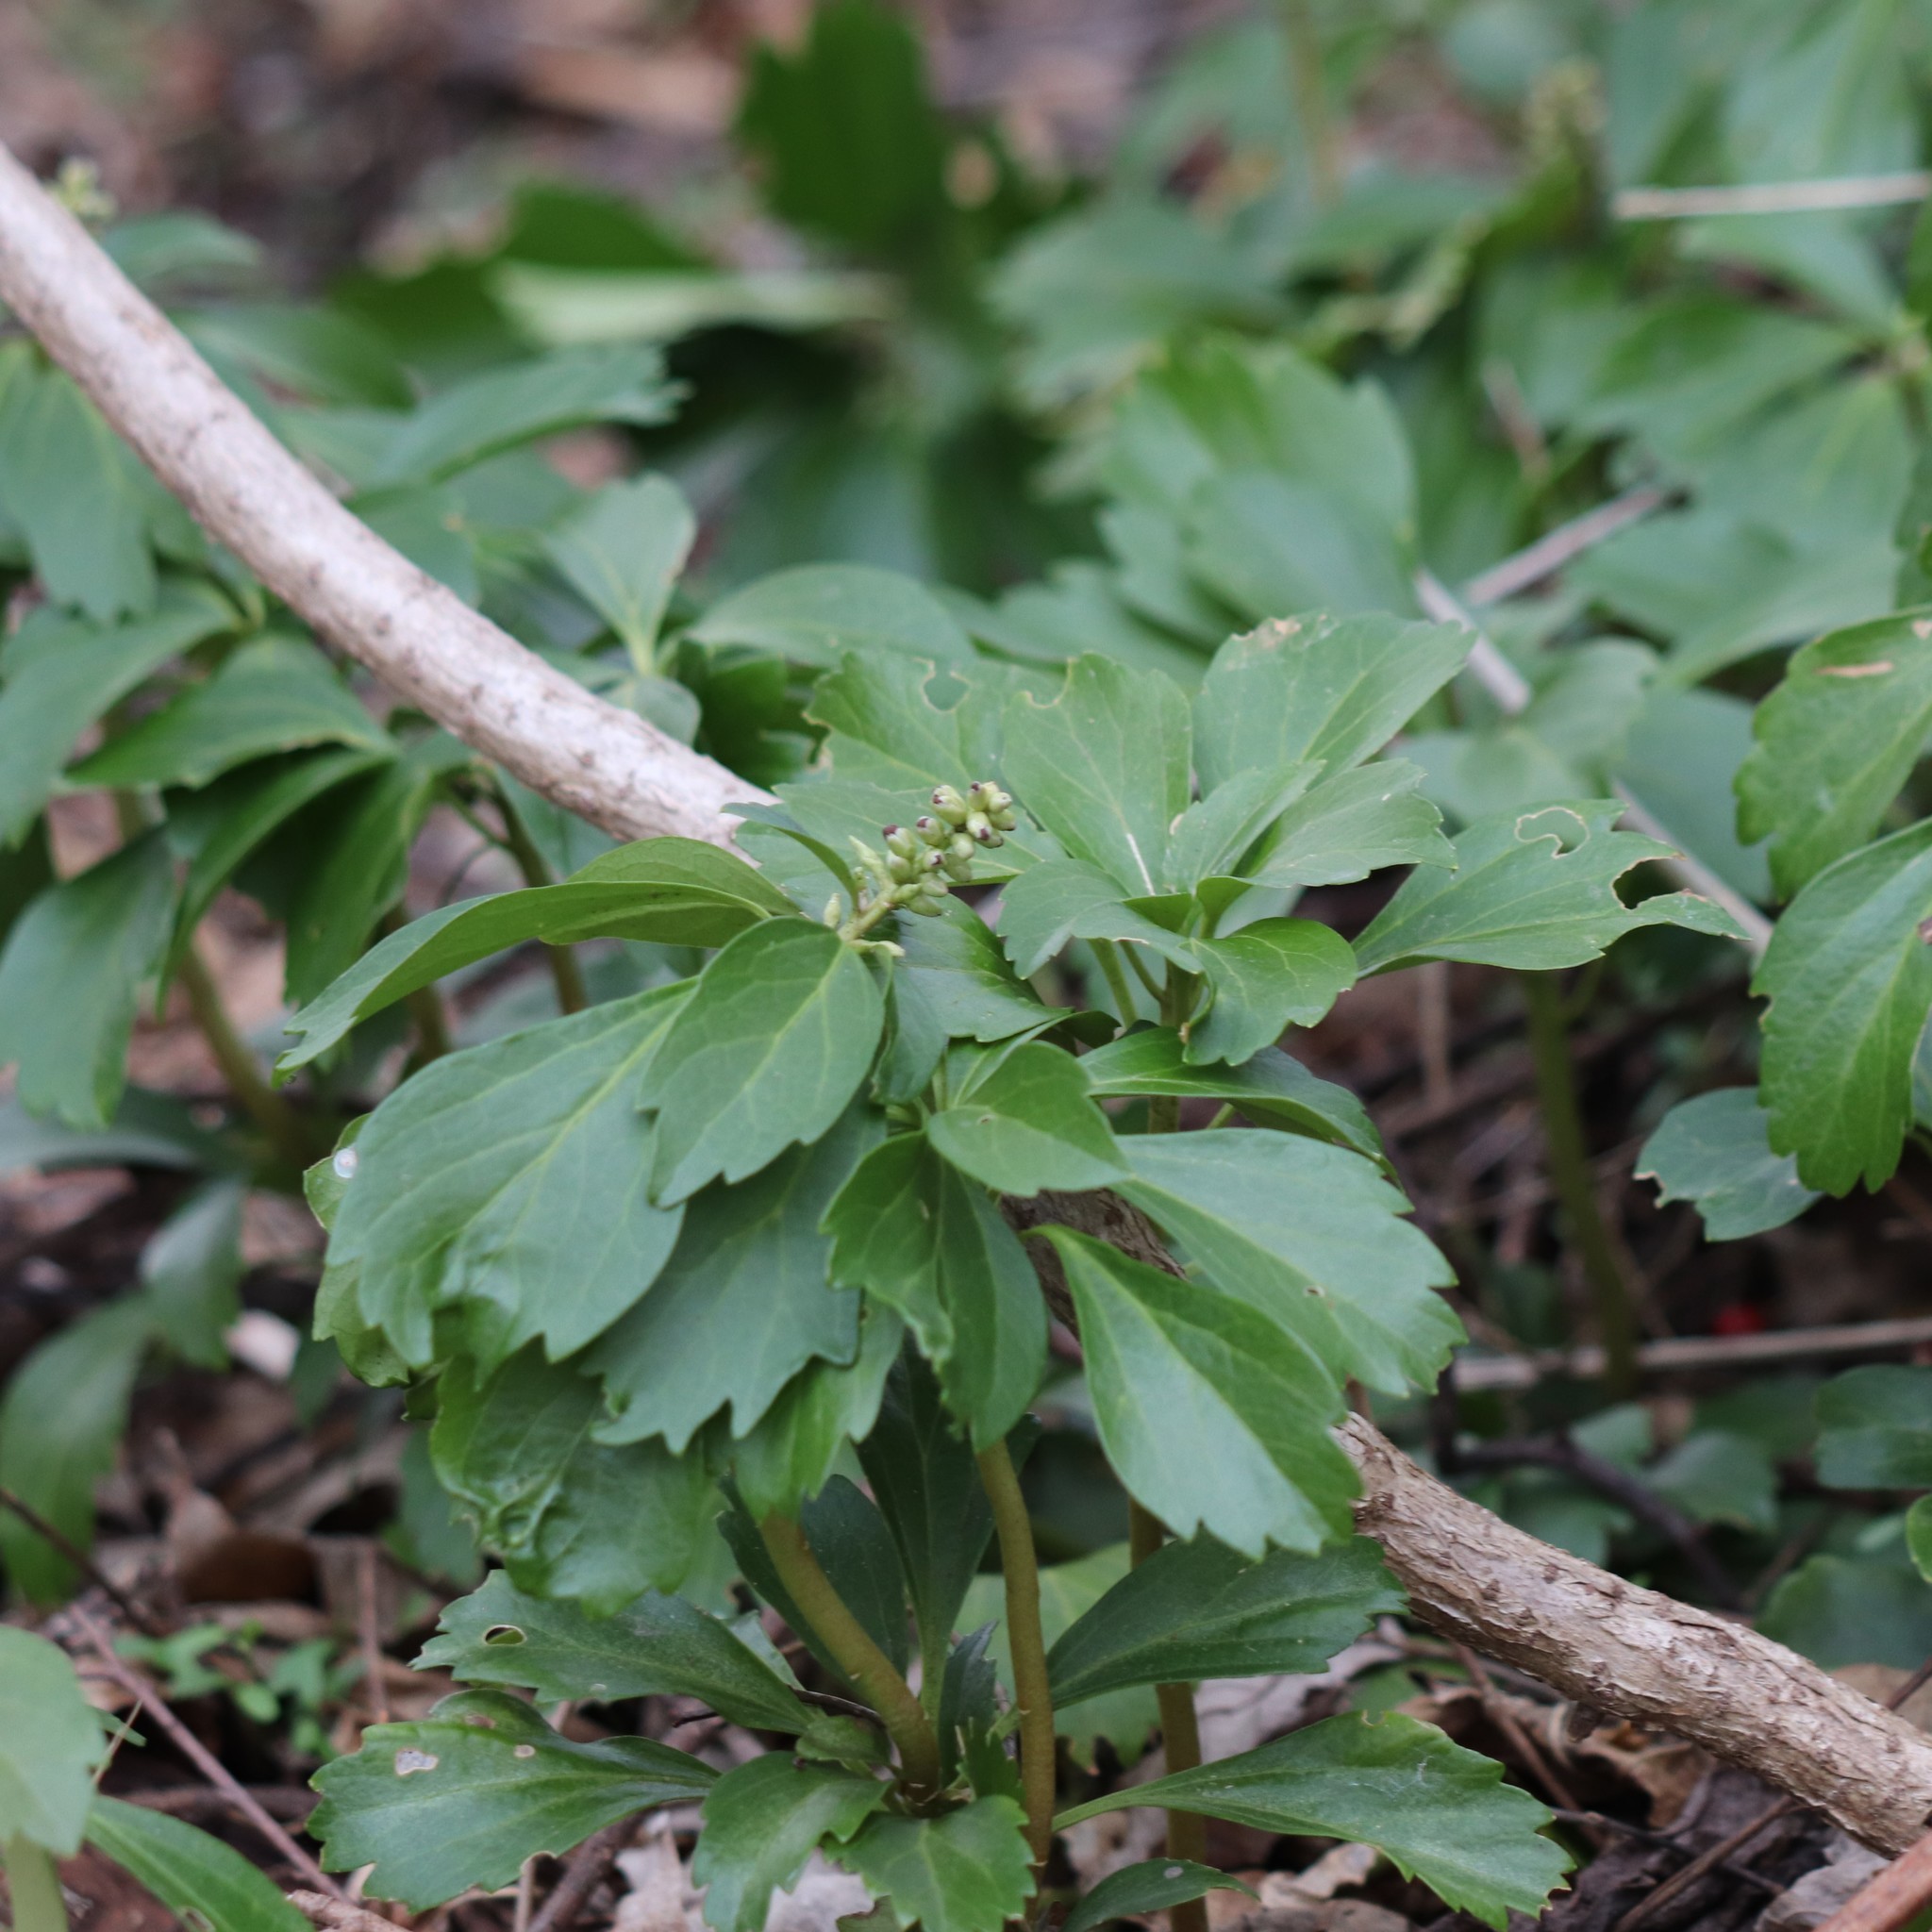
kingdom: Plantae
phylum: Tracheophyta
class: Magnoliopsida
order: Buxales
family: Buxaceae
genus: Pachysandra
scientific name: Pachysandra terminalis
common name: Japanese pachysandra
